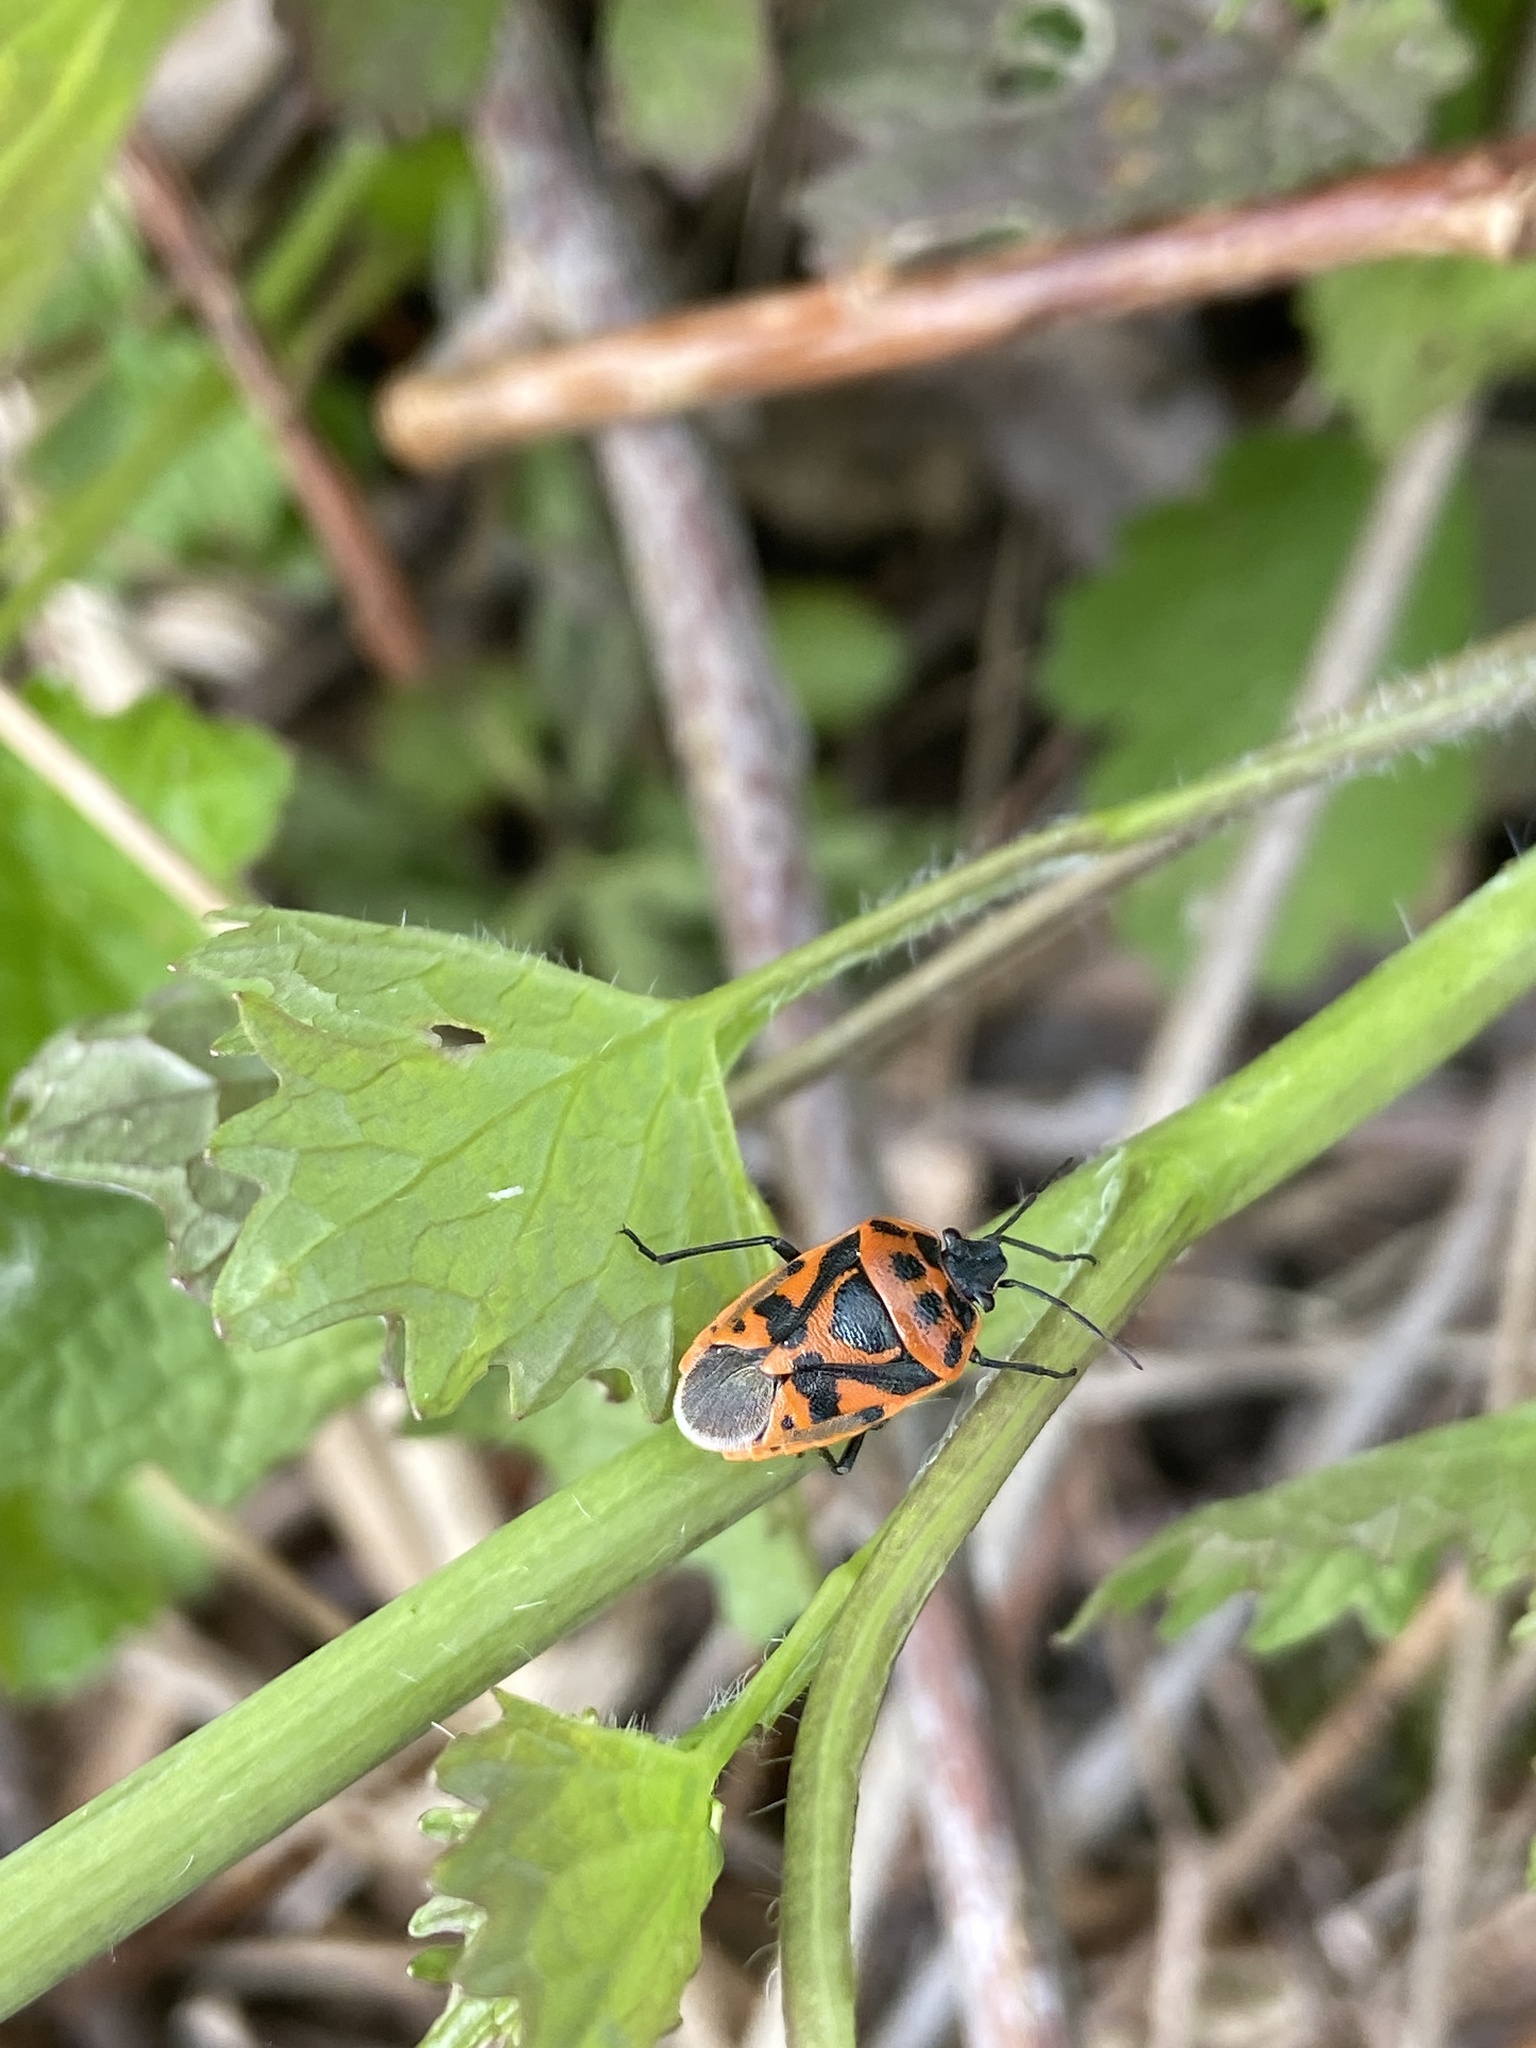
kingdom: Animalia
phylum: Arthropoda
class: Insecta
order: Hemiptera
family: Pentatomidae
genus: Eurydema
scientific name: Eurydema ornata
